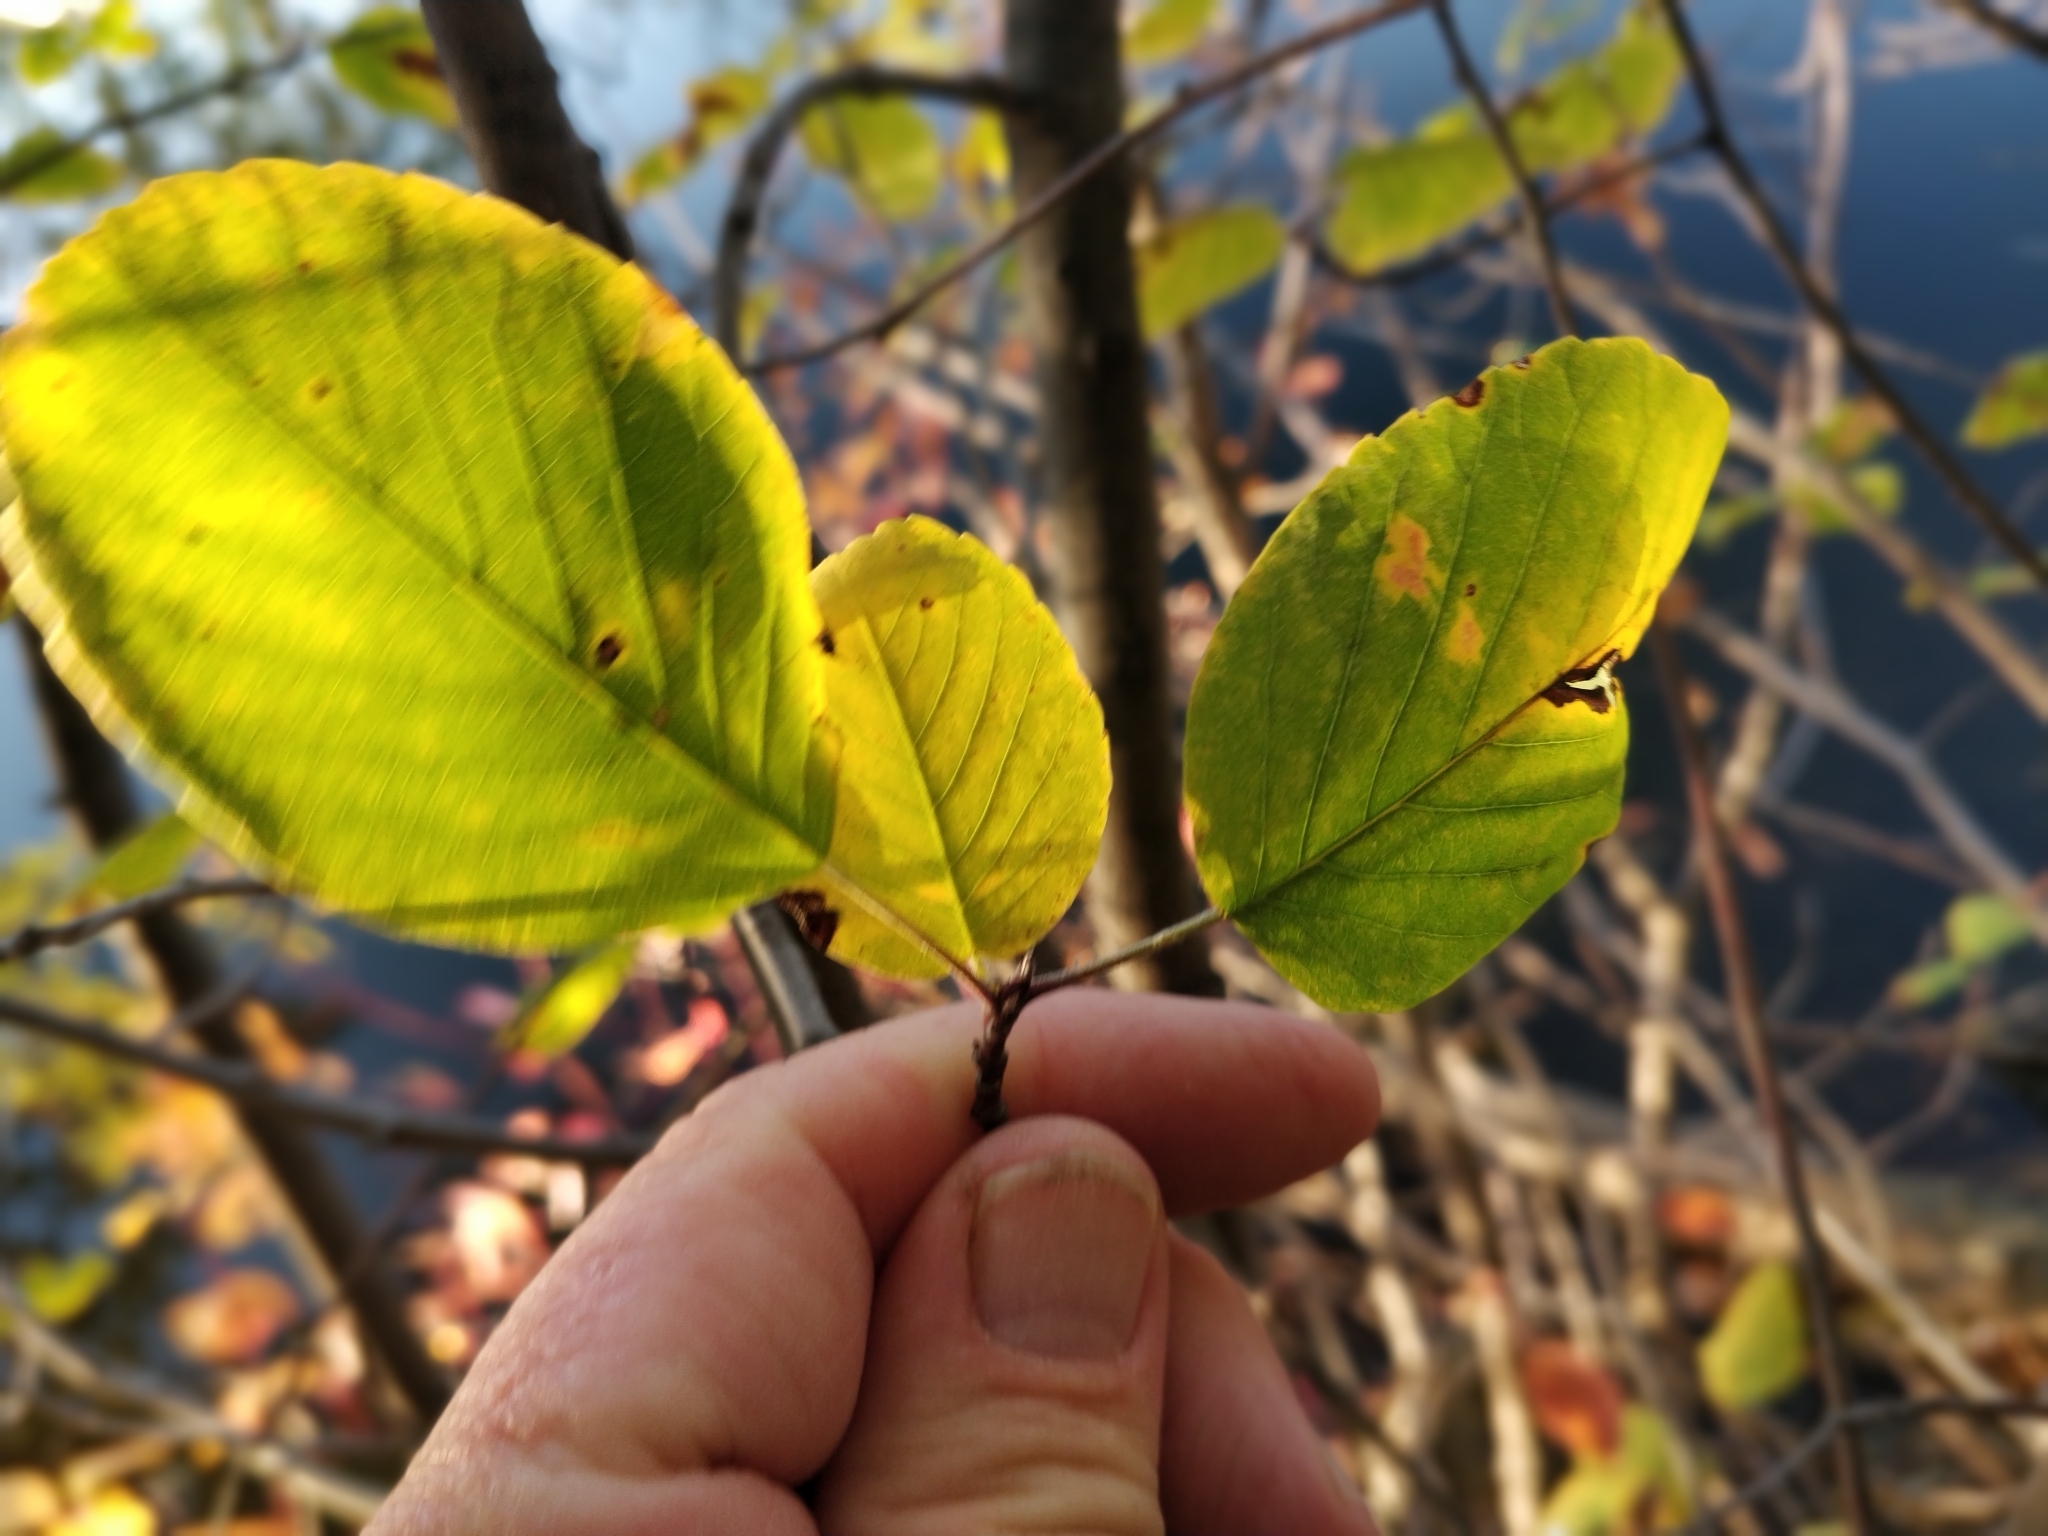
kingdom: Plantae
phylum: Tracheophyta
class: Magnoliopsida
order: Rosales
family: Rosaceae
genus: Amelanchier
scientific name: Amelanchier alnifolia
